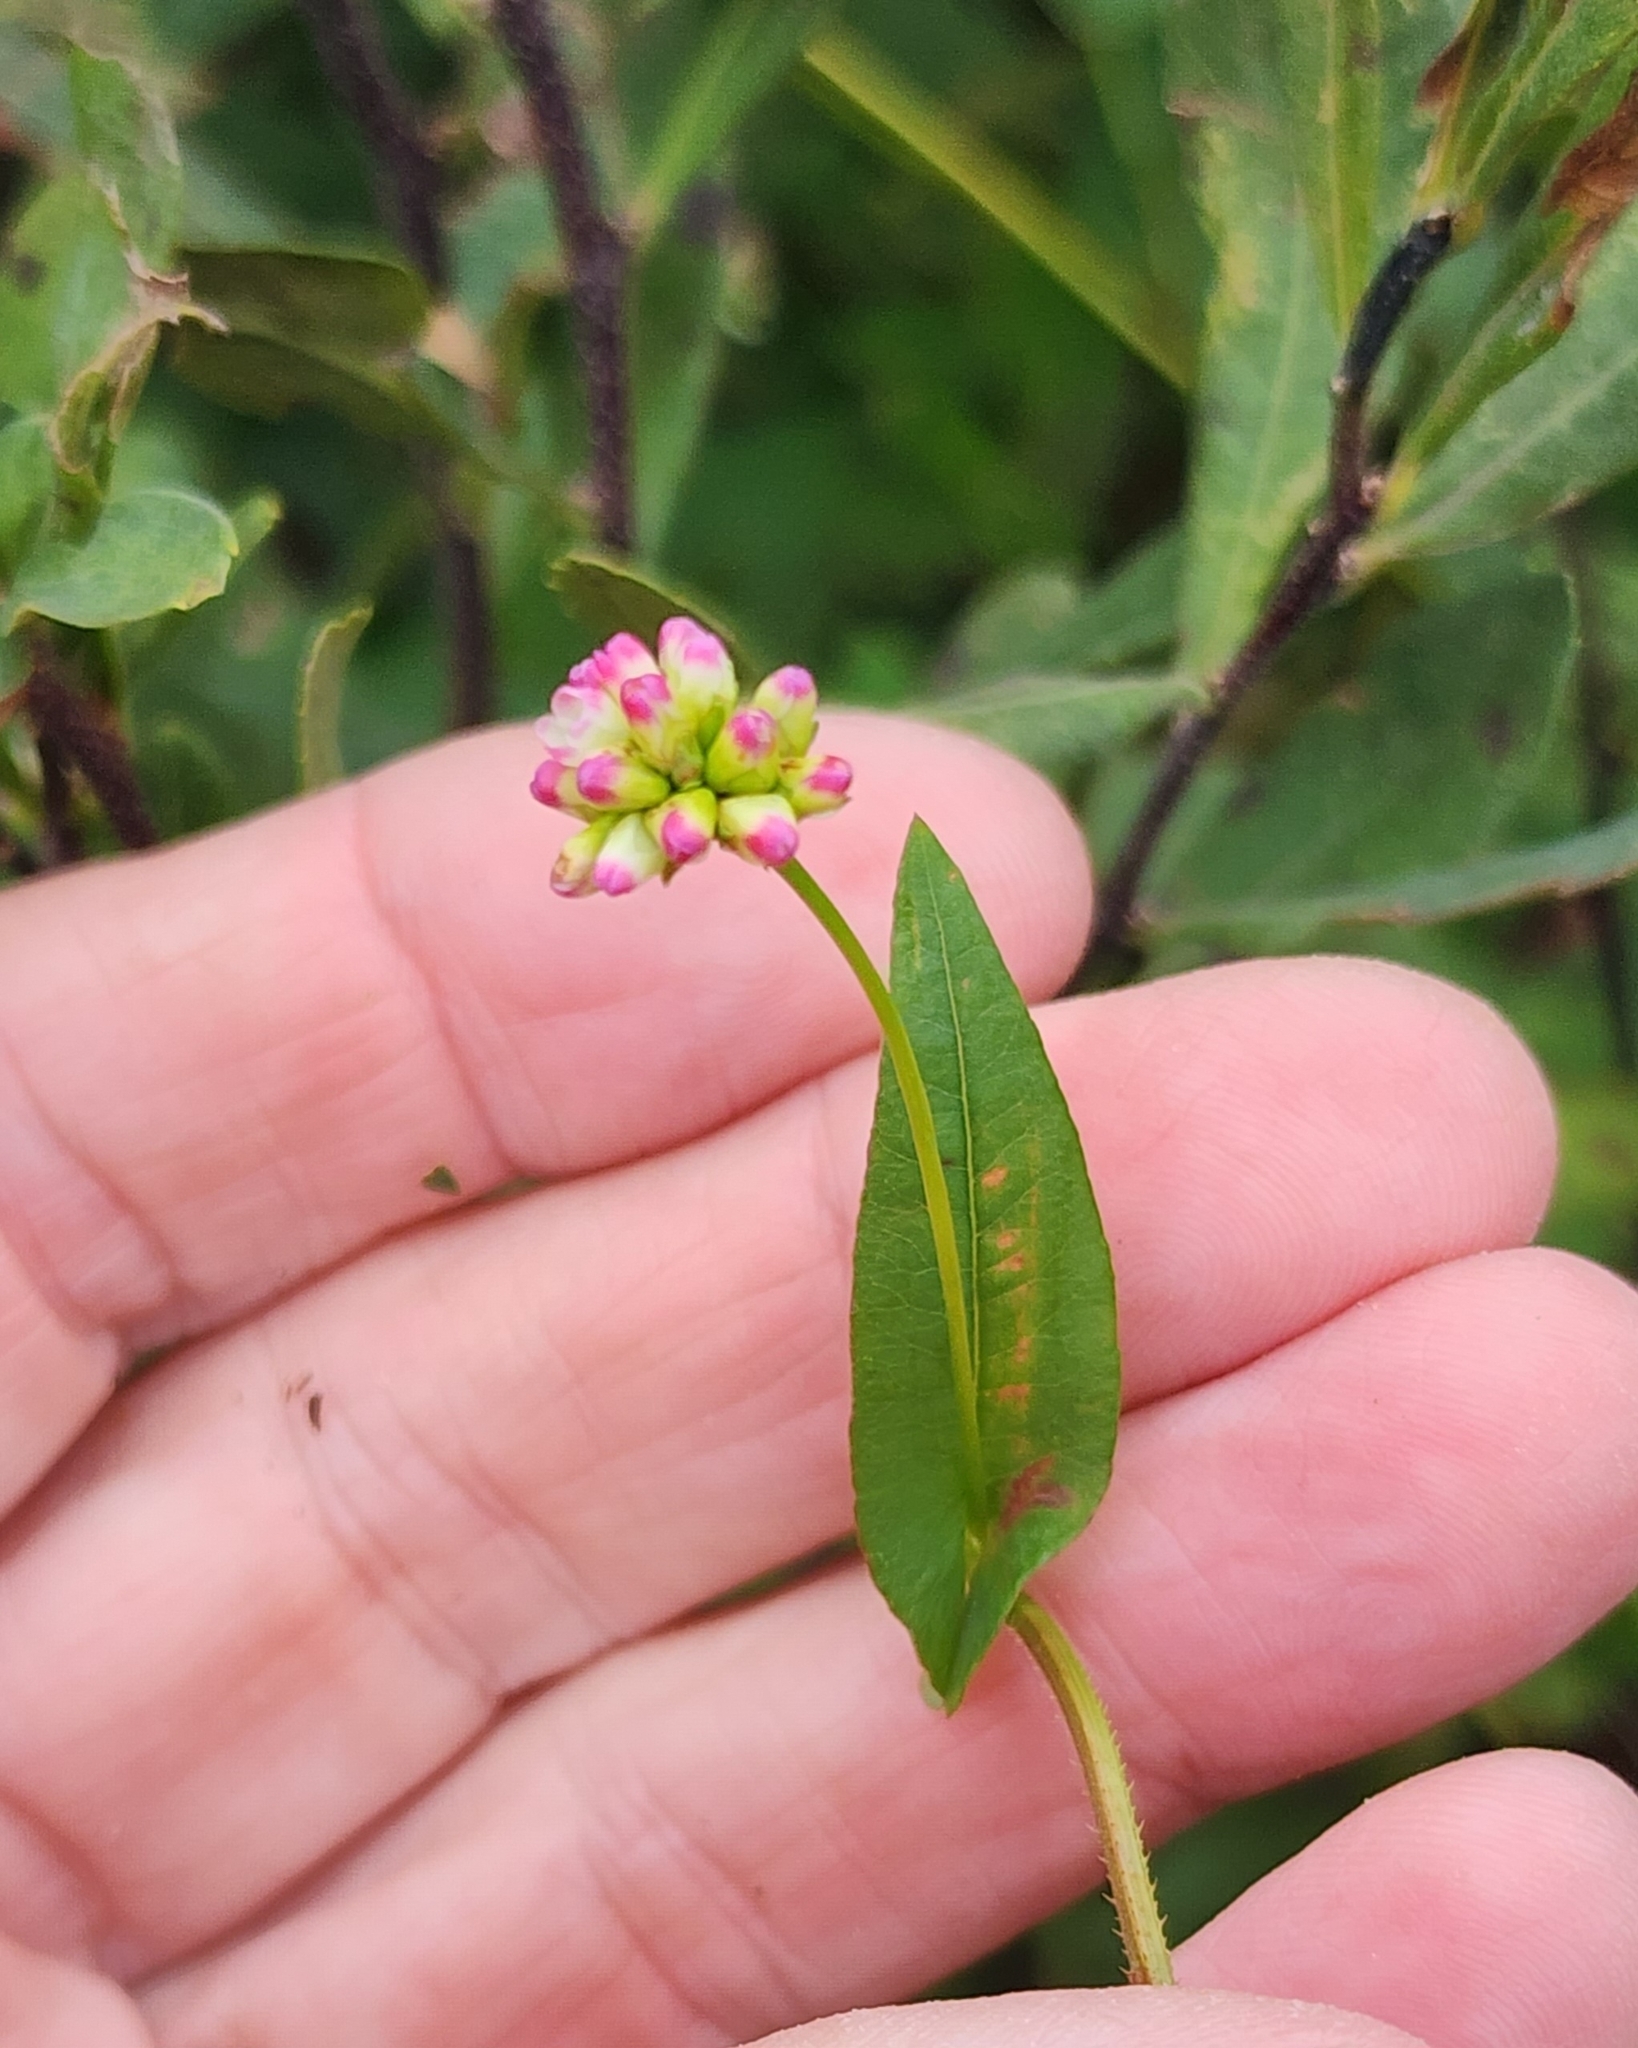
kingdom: Plantae
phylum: Tracheophyta
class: Magnoliopsida
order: Caryophyllales
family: Polygonaceae
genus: Persicaria
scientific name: Persicaria sagittata
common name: American tearthumb
